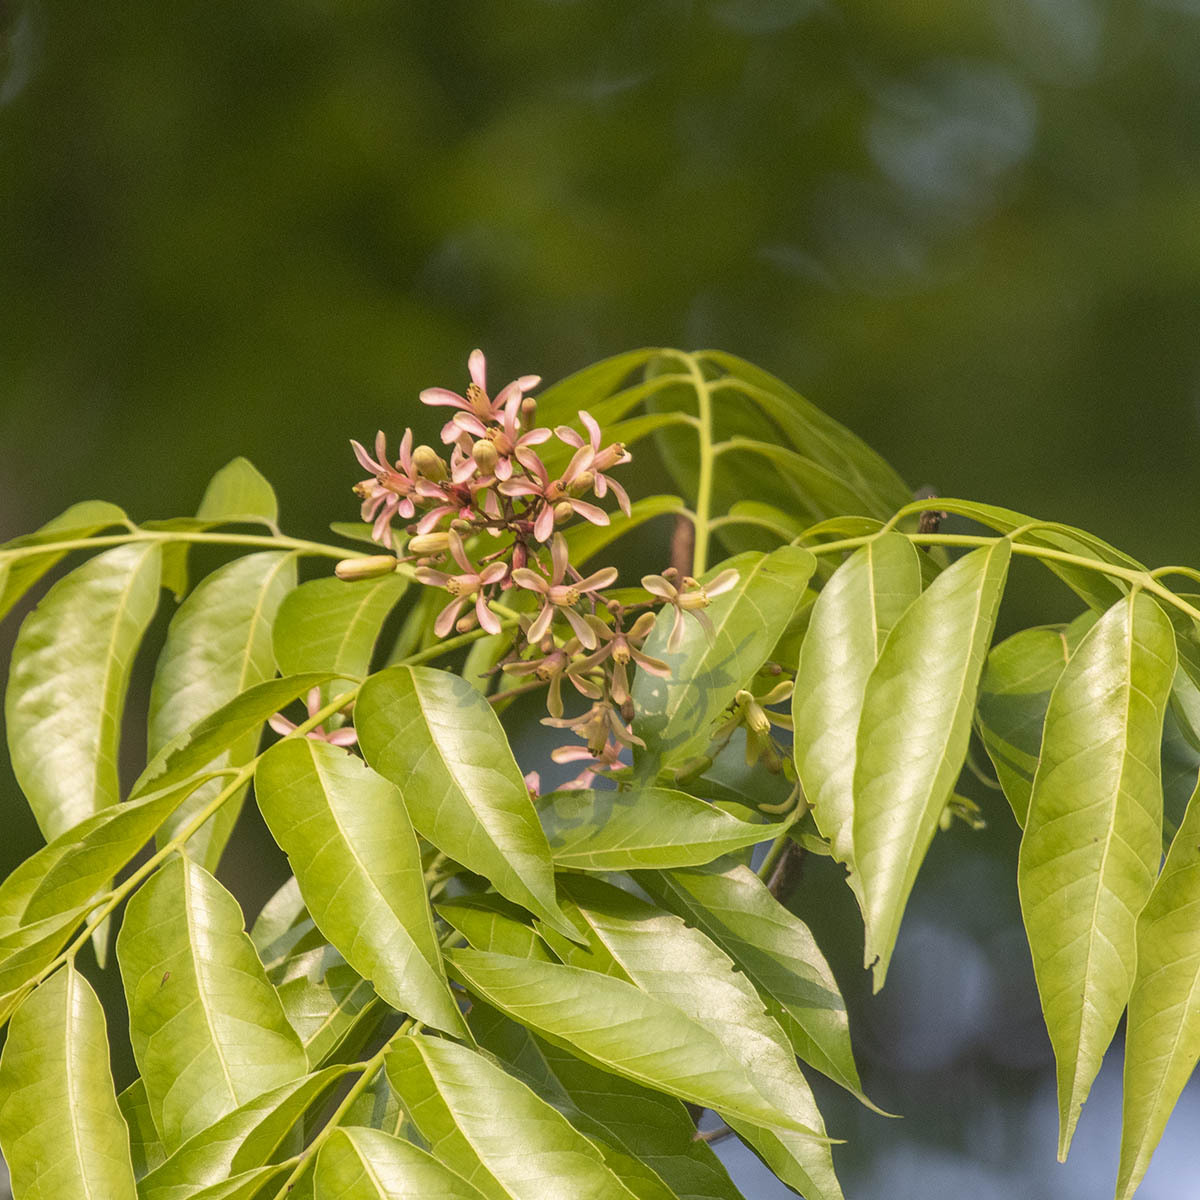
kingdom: Plantae
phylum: Tracheophyta
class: Magnoliopsida
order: Sapindales
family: Rutaceae
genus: Murraya
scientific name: Murraya koenigii
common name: Curry-plant
